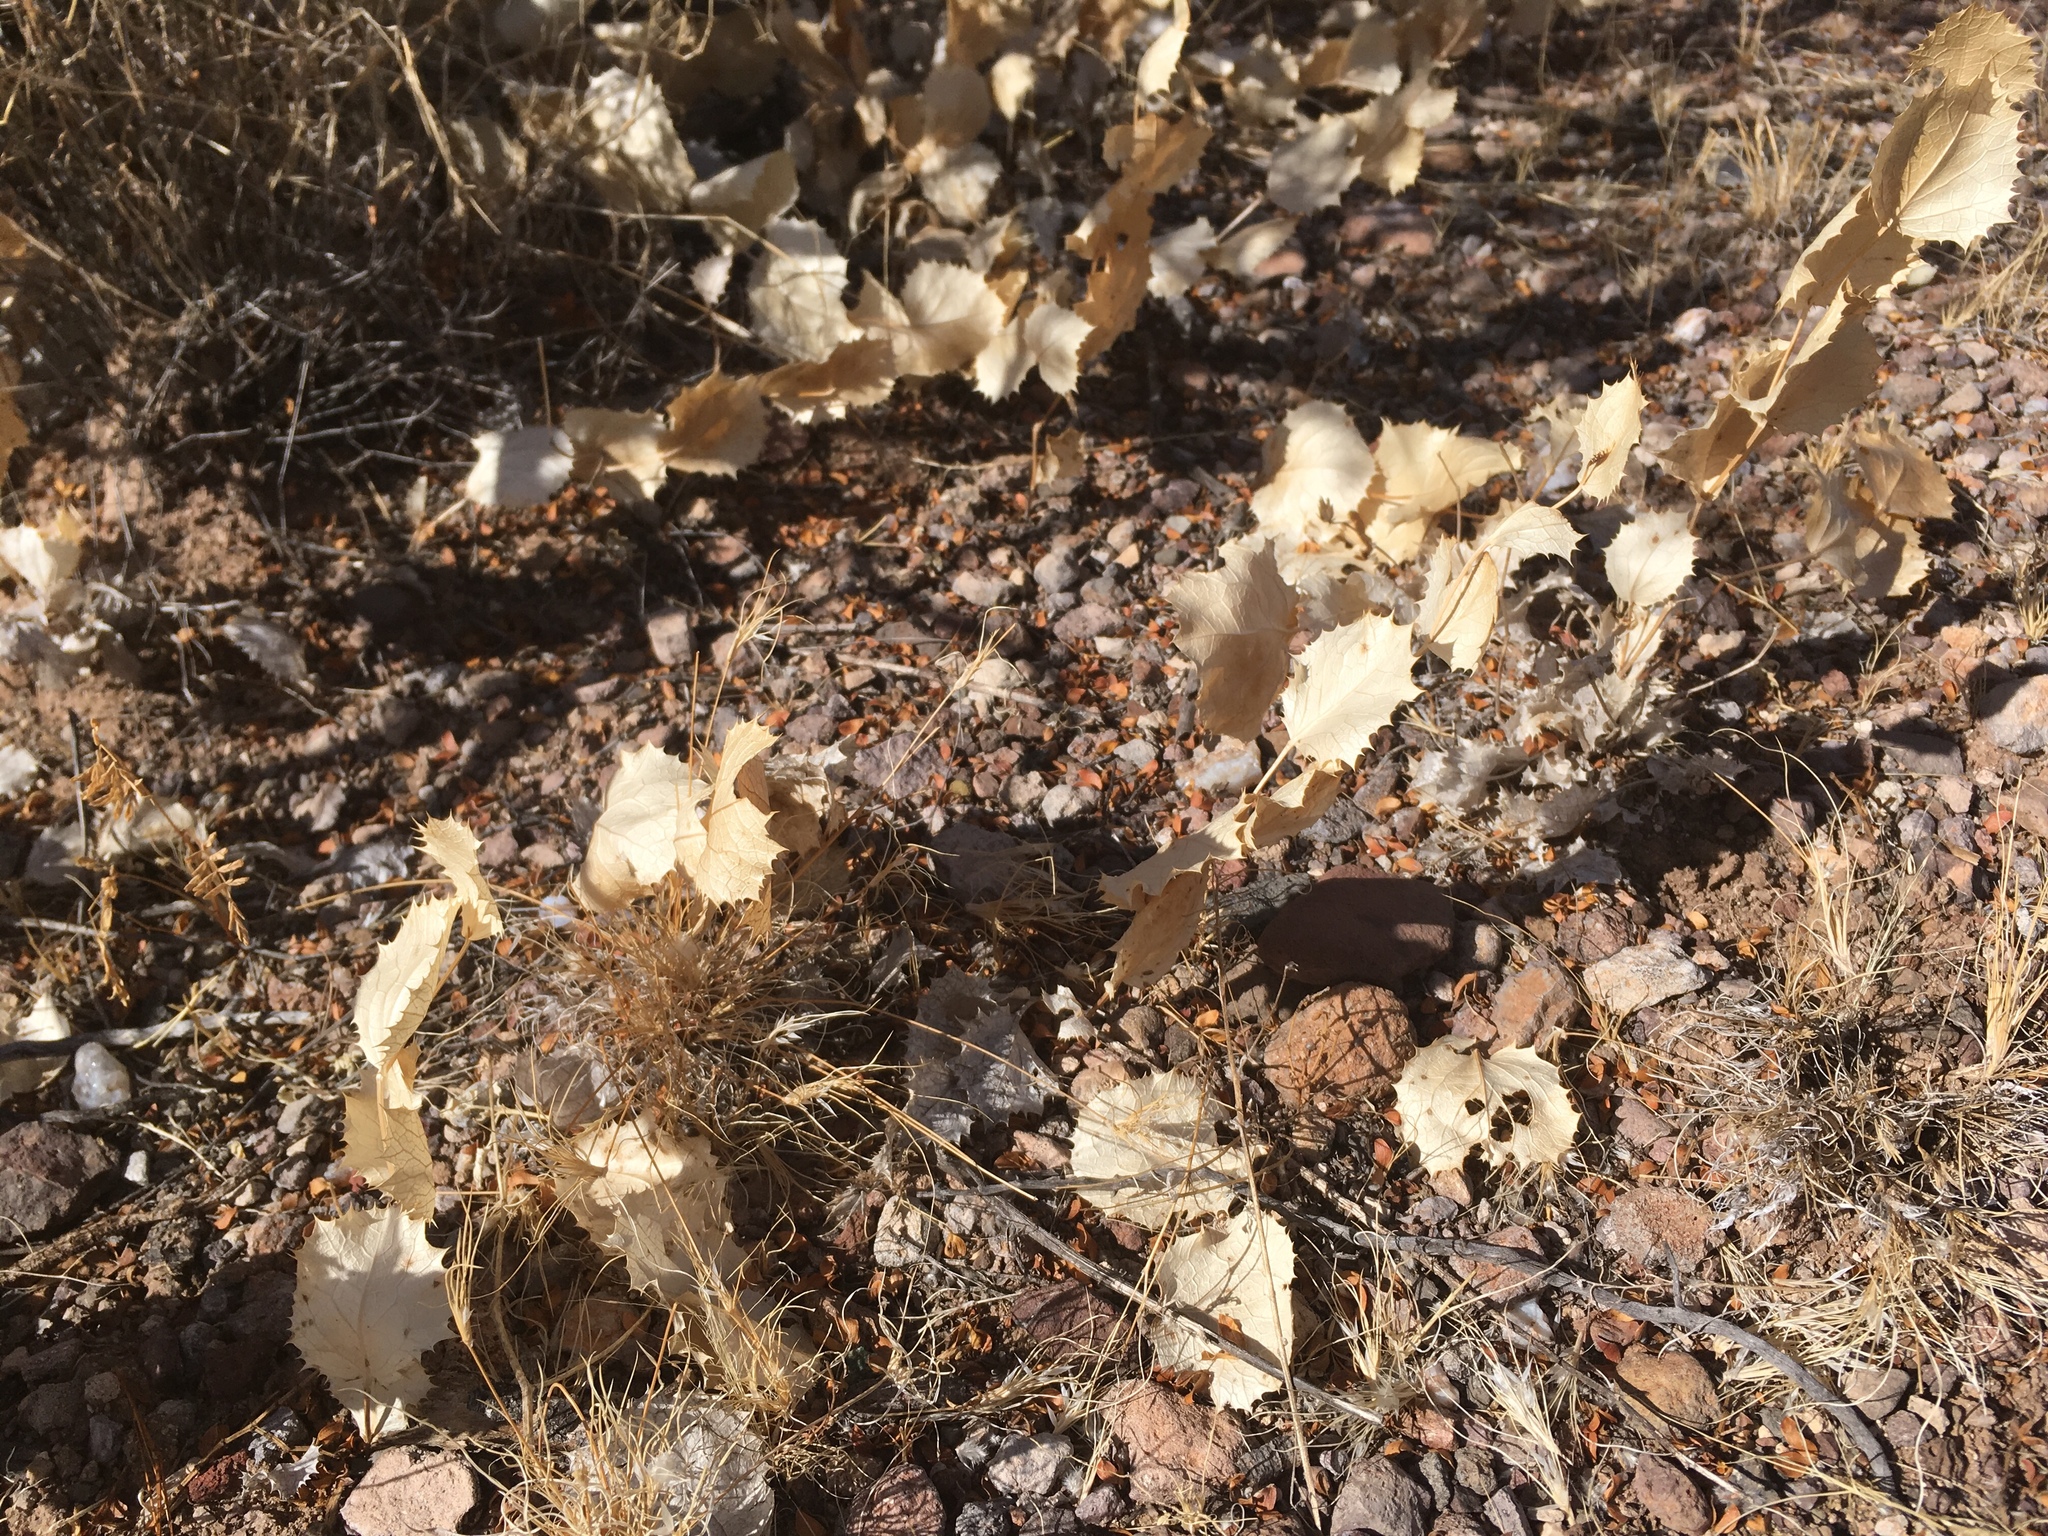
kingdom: Plantae
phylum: Tracheophyta
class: Magnoliopsida
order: Asterales
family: Asteraceae
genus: Acourtia
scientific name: Acourtia nana
